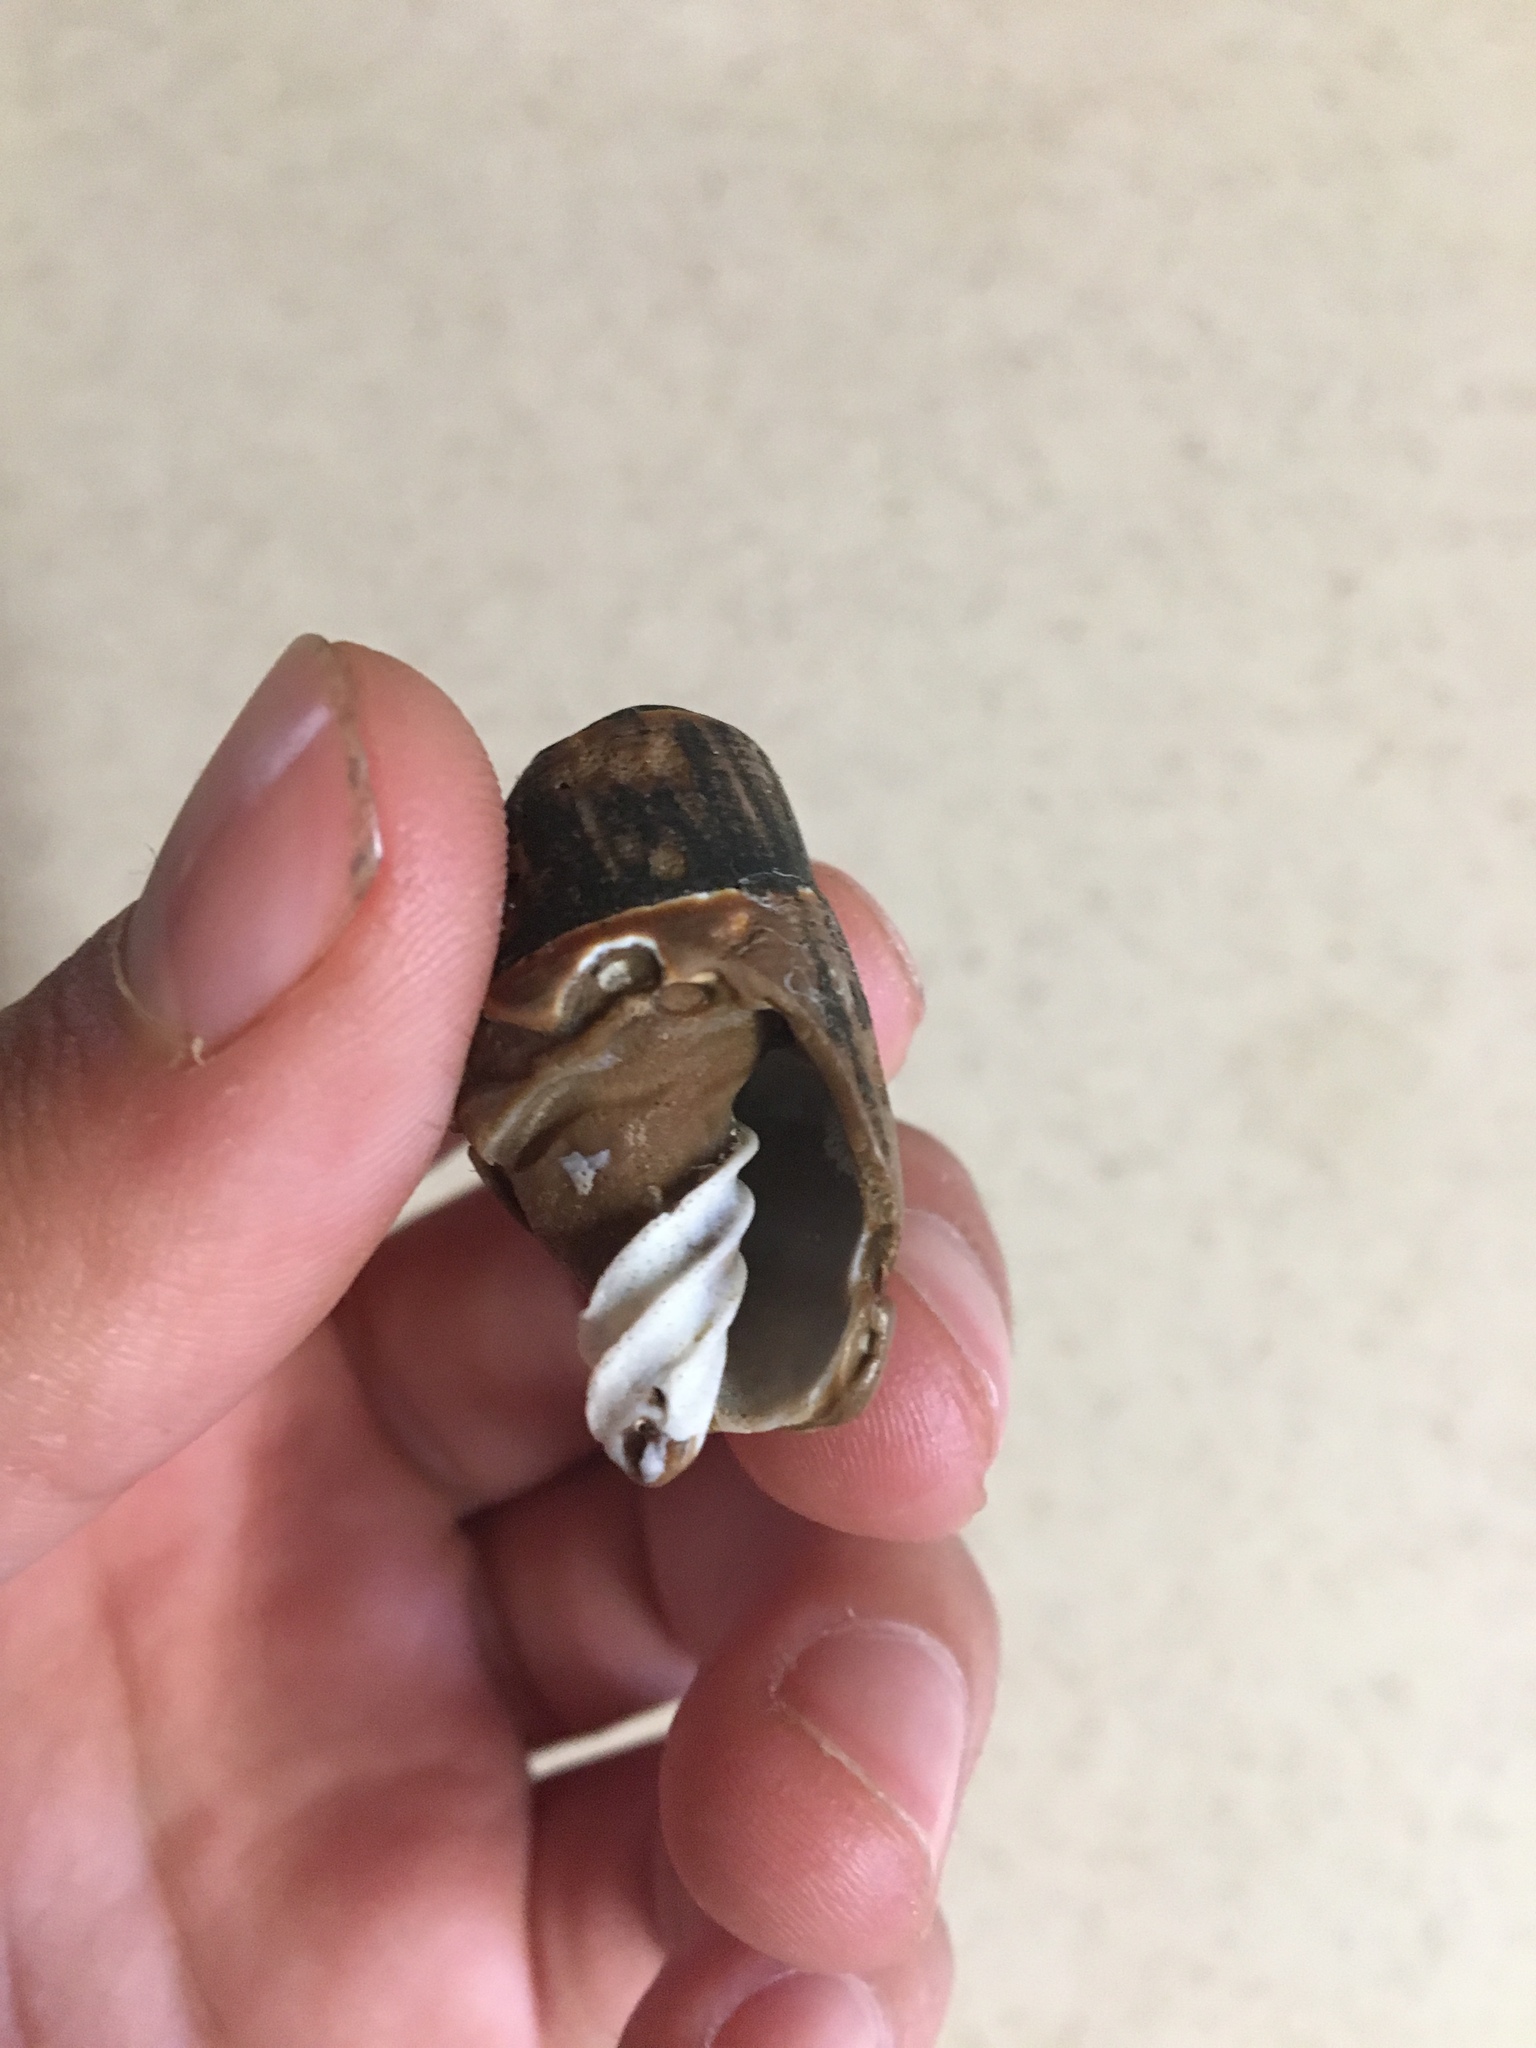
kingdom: Animalia
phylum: Mollusca
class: Gastropoda
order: Neogastropoda
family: Mitridae
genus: Atrimitra
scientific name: Atrimitra idae
